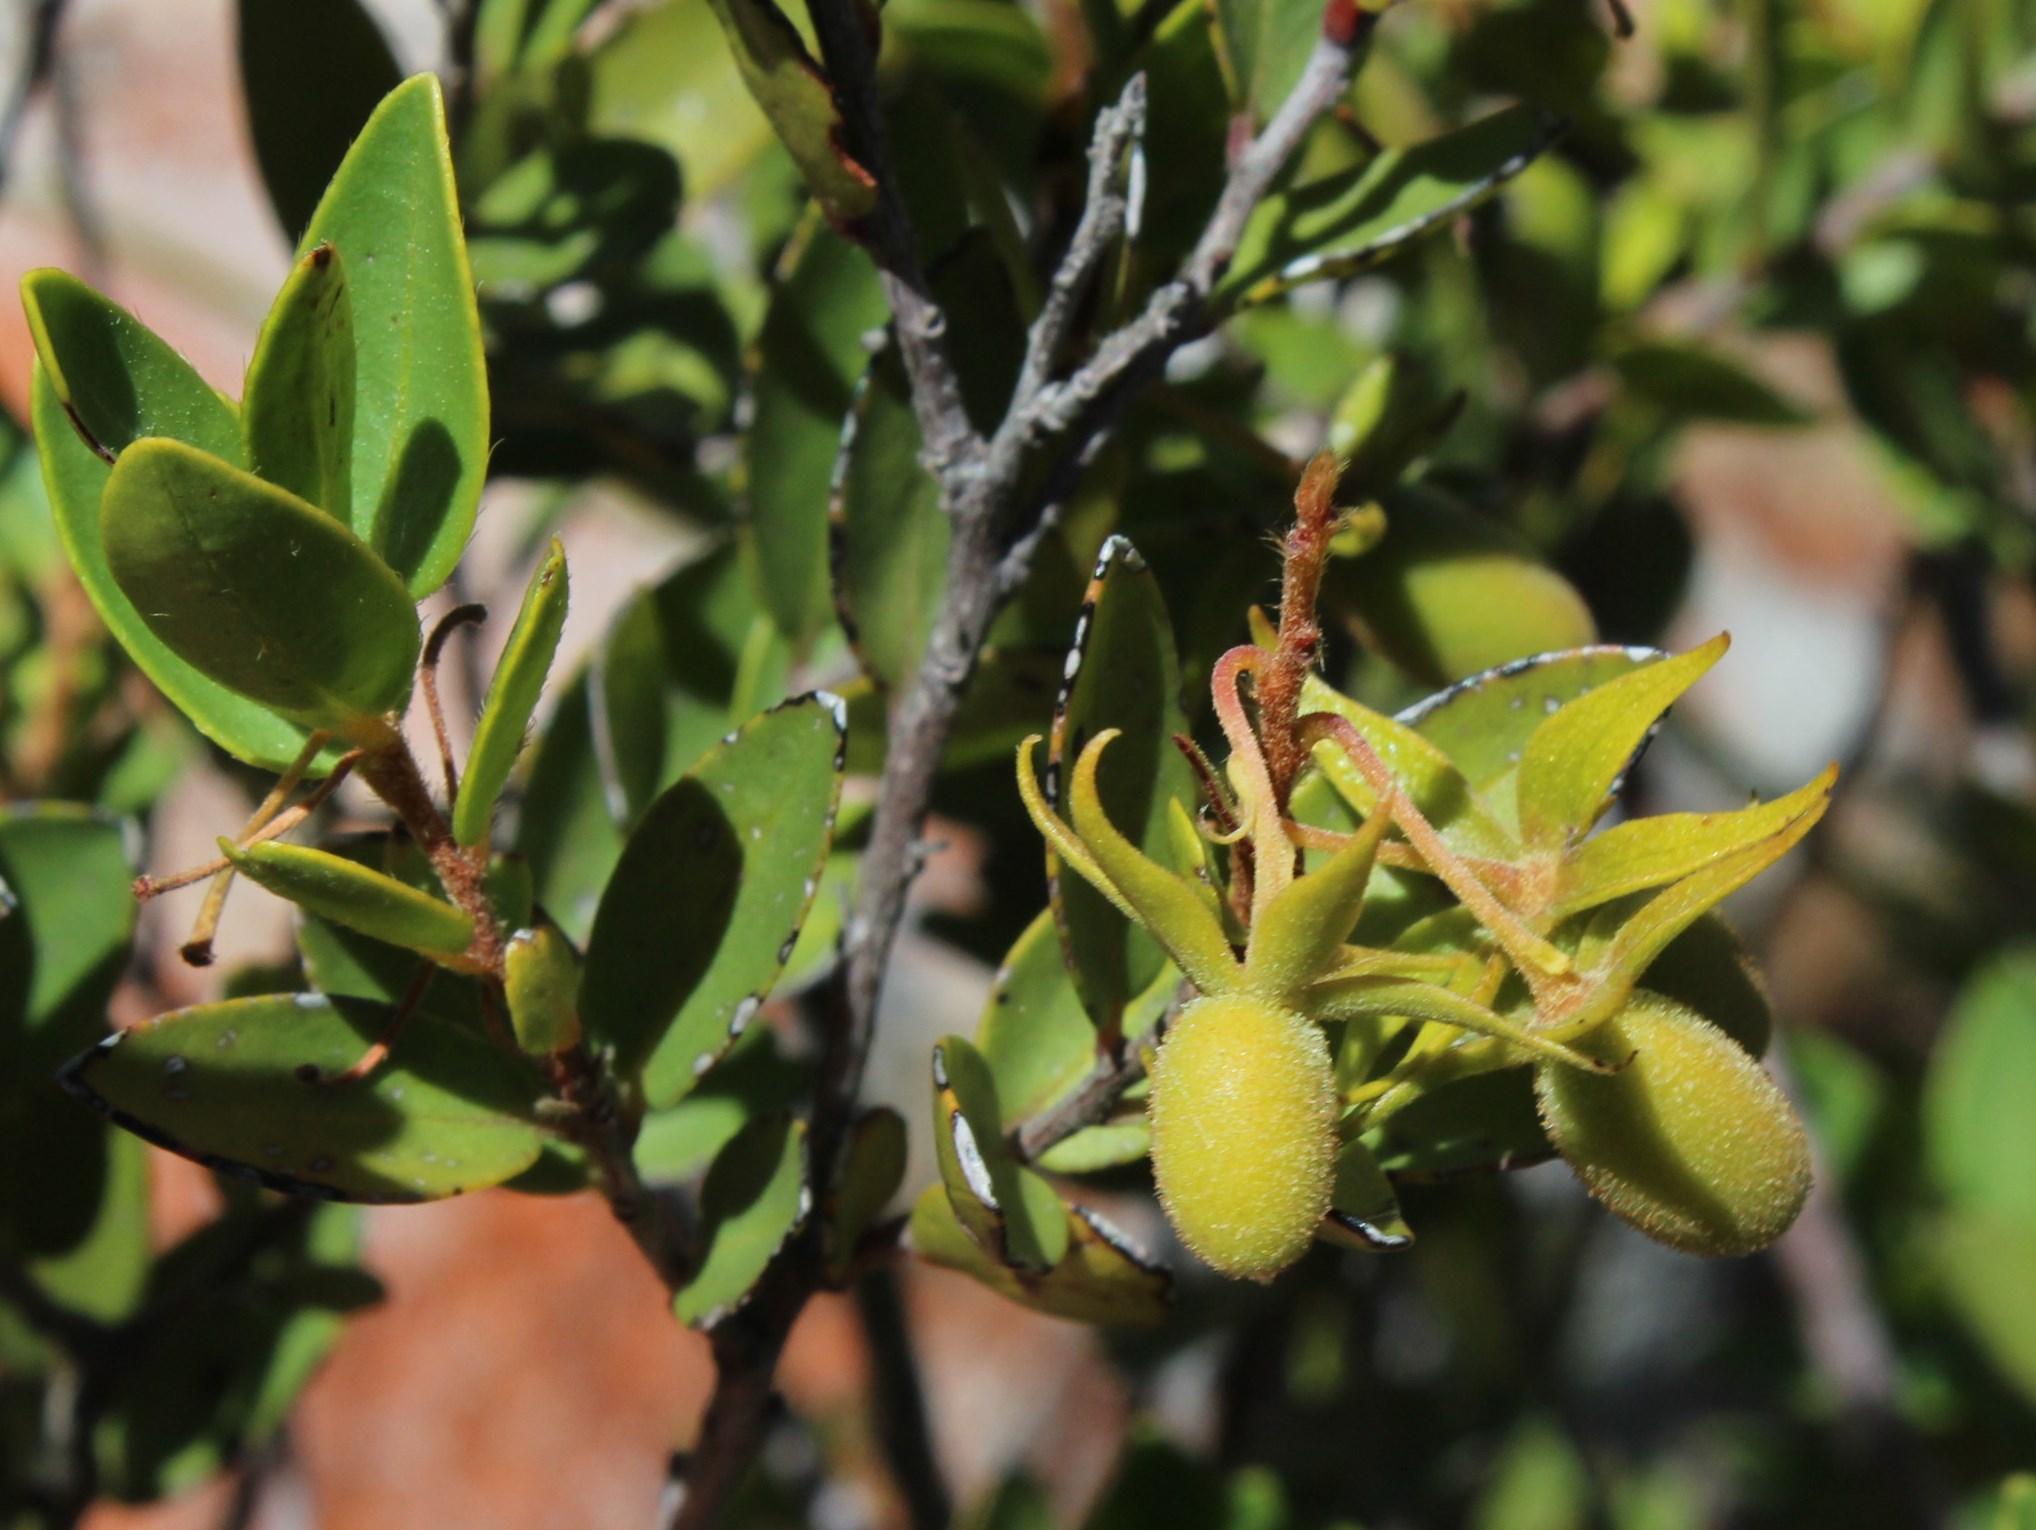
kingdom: Plantae
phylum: Tracheophyta
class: Magnoliopsida
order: Ericales
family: Ebenaceae
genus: Diospyros
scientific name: Diospyros glabra
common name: Fynbos star apple
